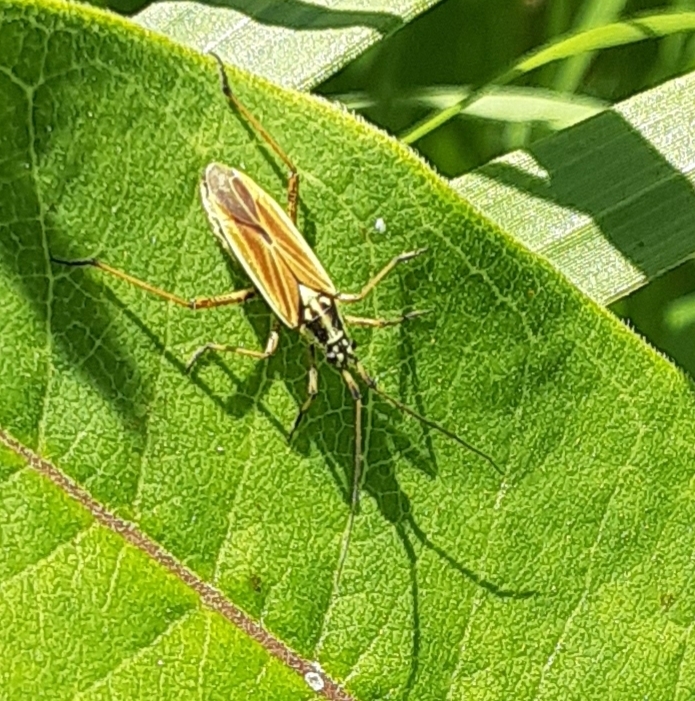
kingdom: Animalia
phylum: Arthropoda
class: Insecta
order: Hemiptera
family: Miridae
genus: Leptopterna
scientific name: Leptopterna dolabrata
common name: Meadow plant bug
